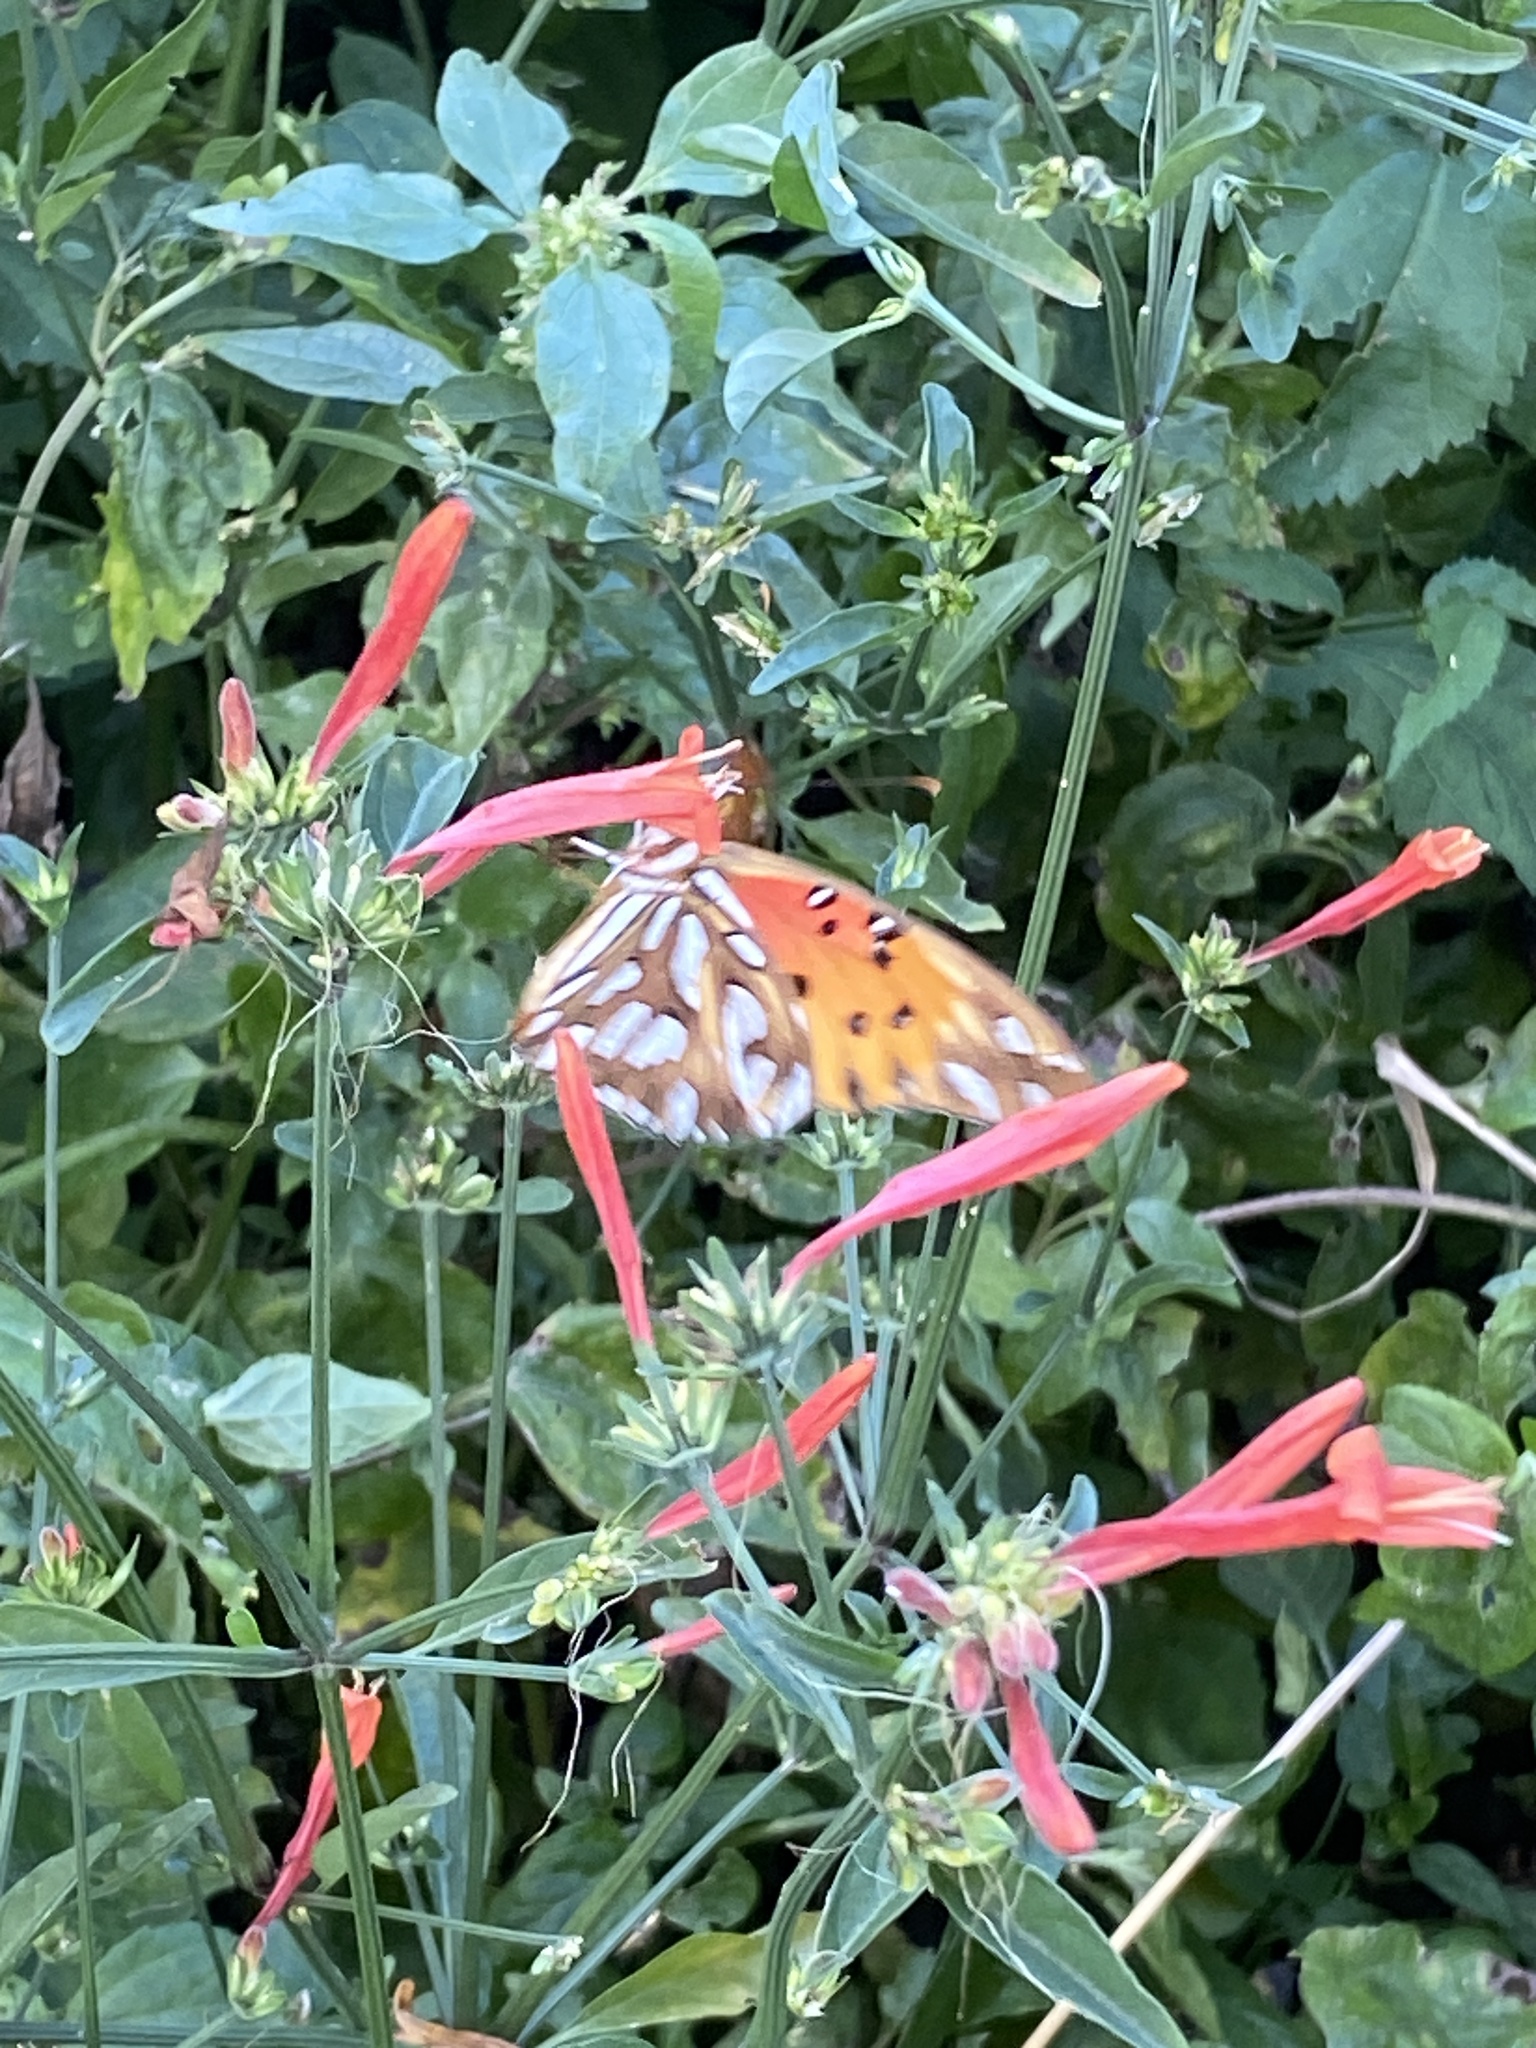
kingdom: Plantae
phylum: Tracheophyta
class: Magnoliopsida
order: Lamiales
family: Acanthaceae
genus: Dicliptera
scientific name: Dicliptera squarrosa
